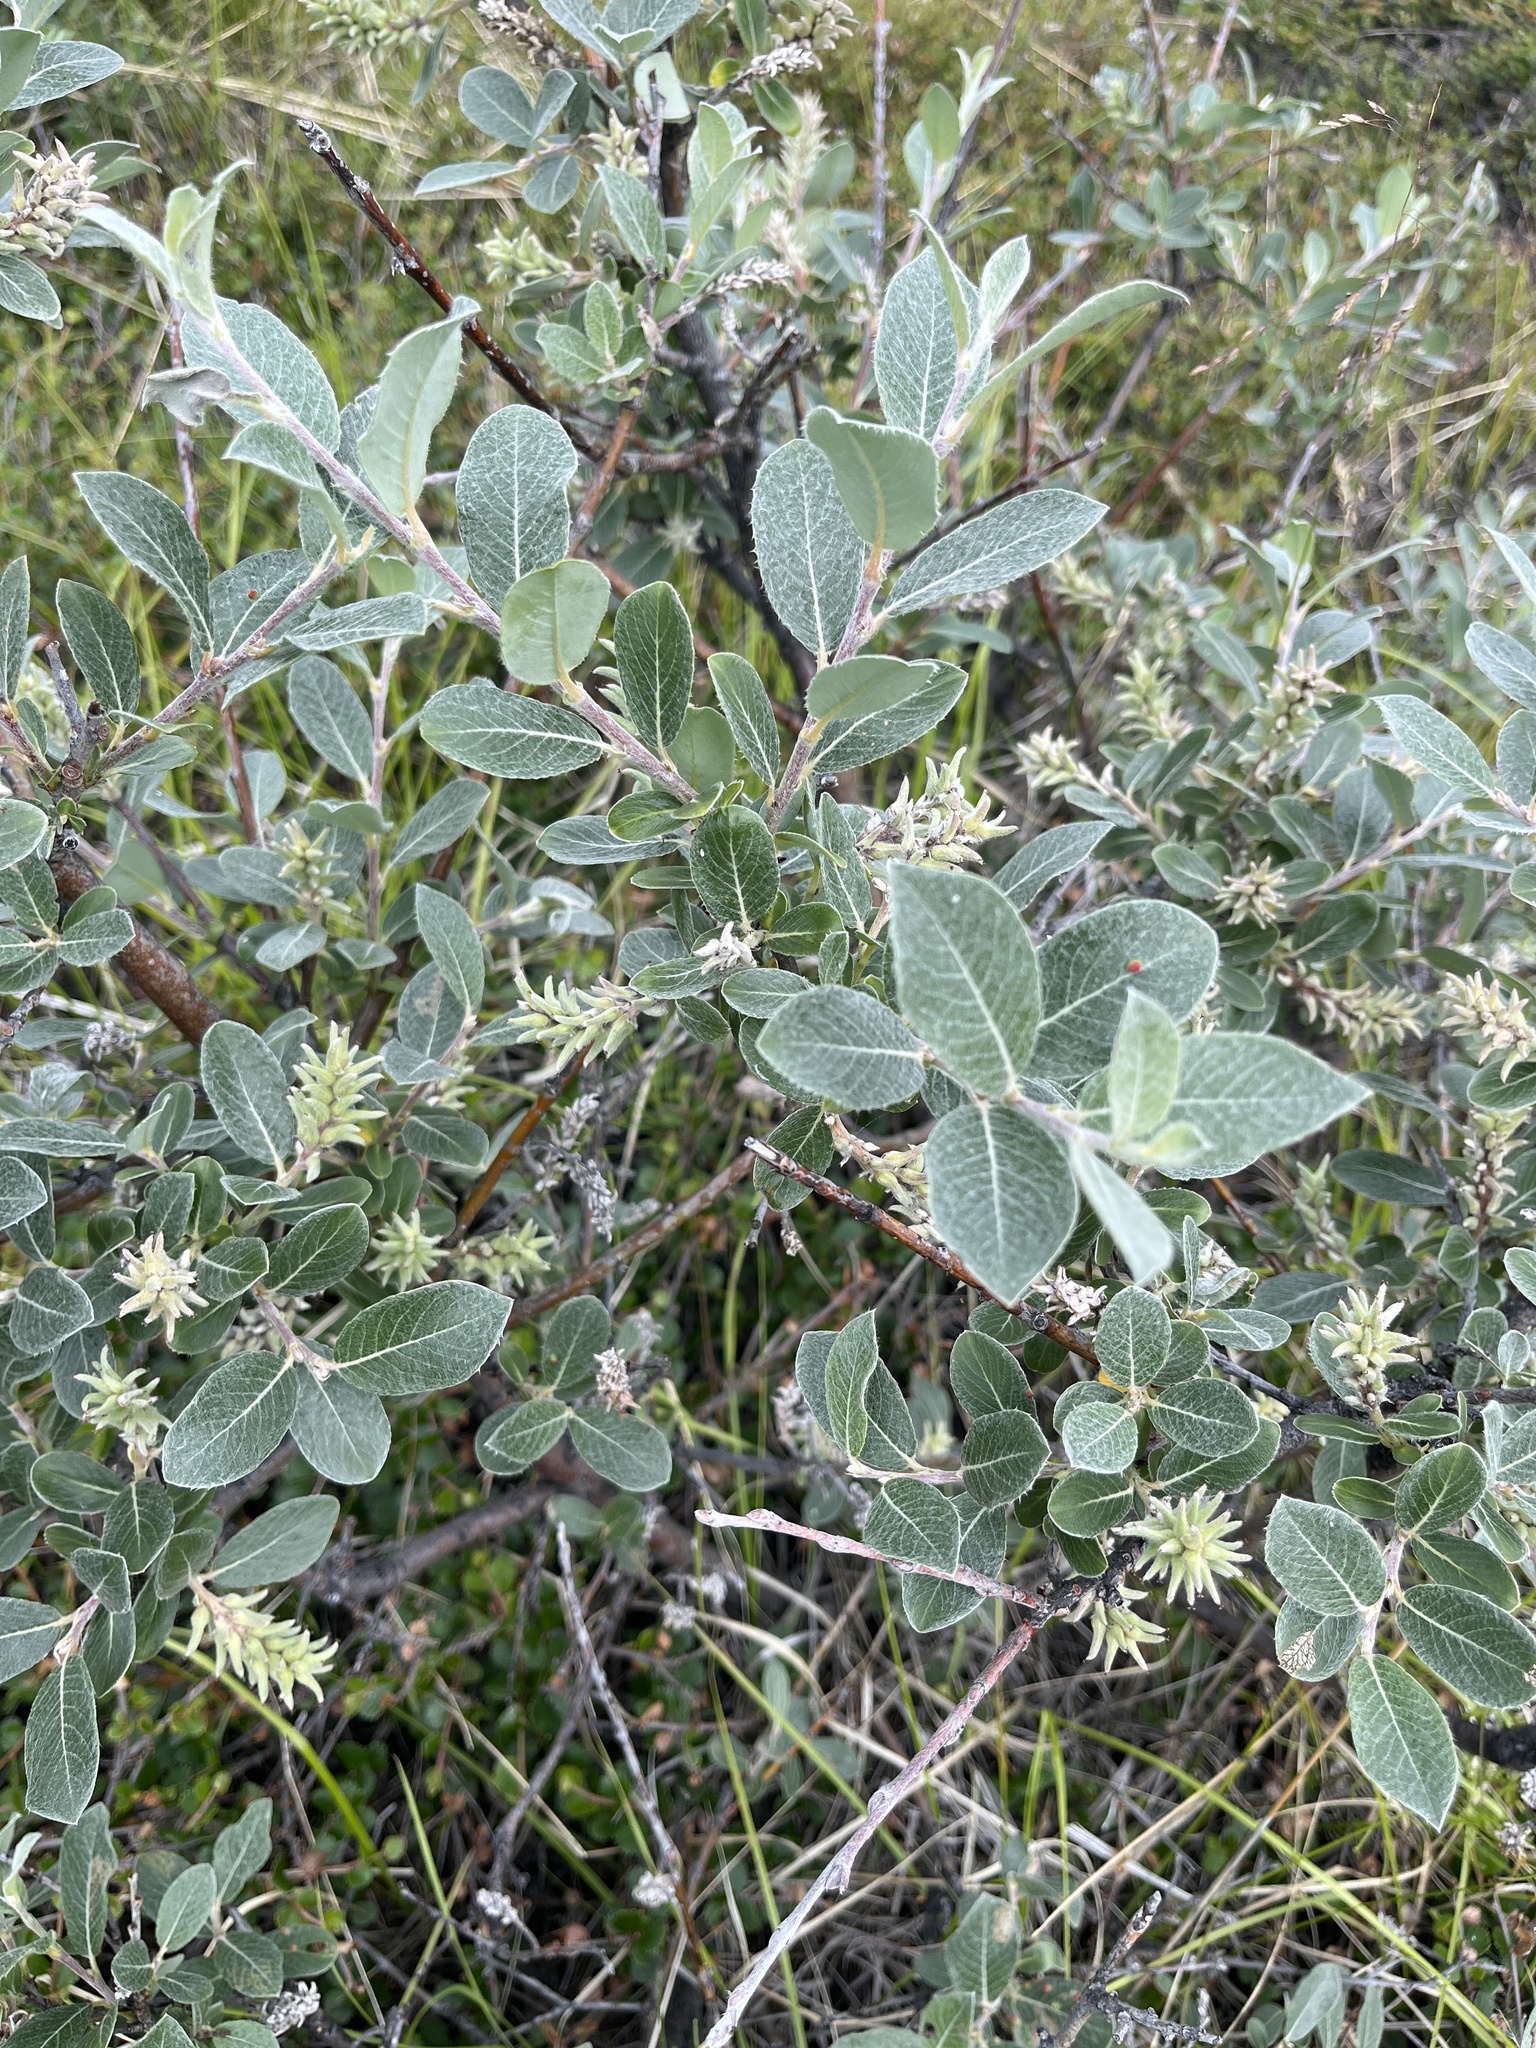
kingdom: Plantae
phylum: Tracheophyta
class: Magnoliopsida
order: Malpighiales
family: Salicaceae
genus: Salix
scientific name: Salix glauca
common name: Glaucous willow
